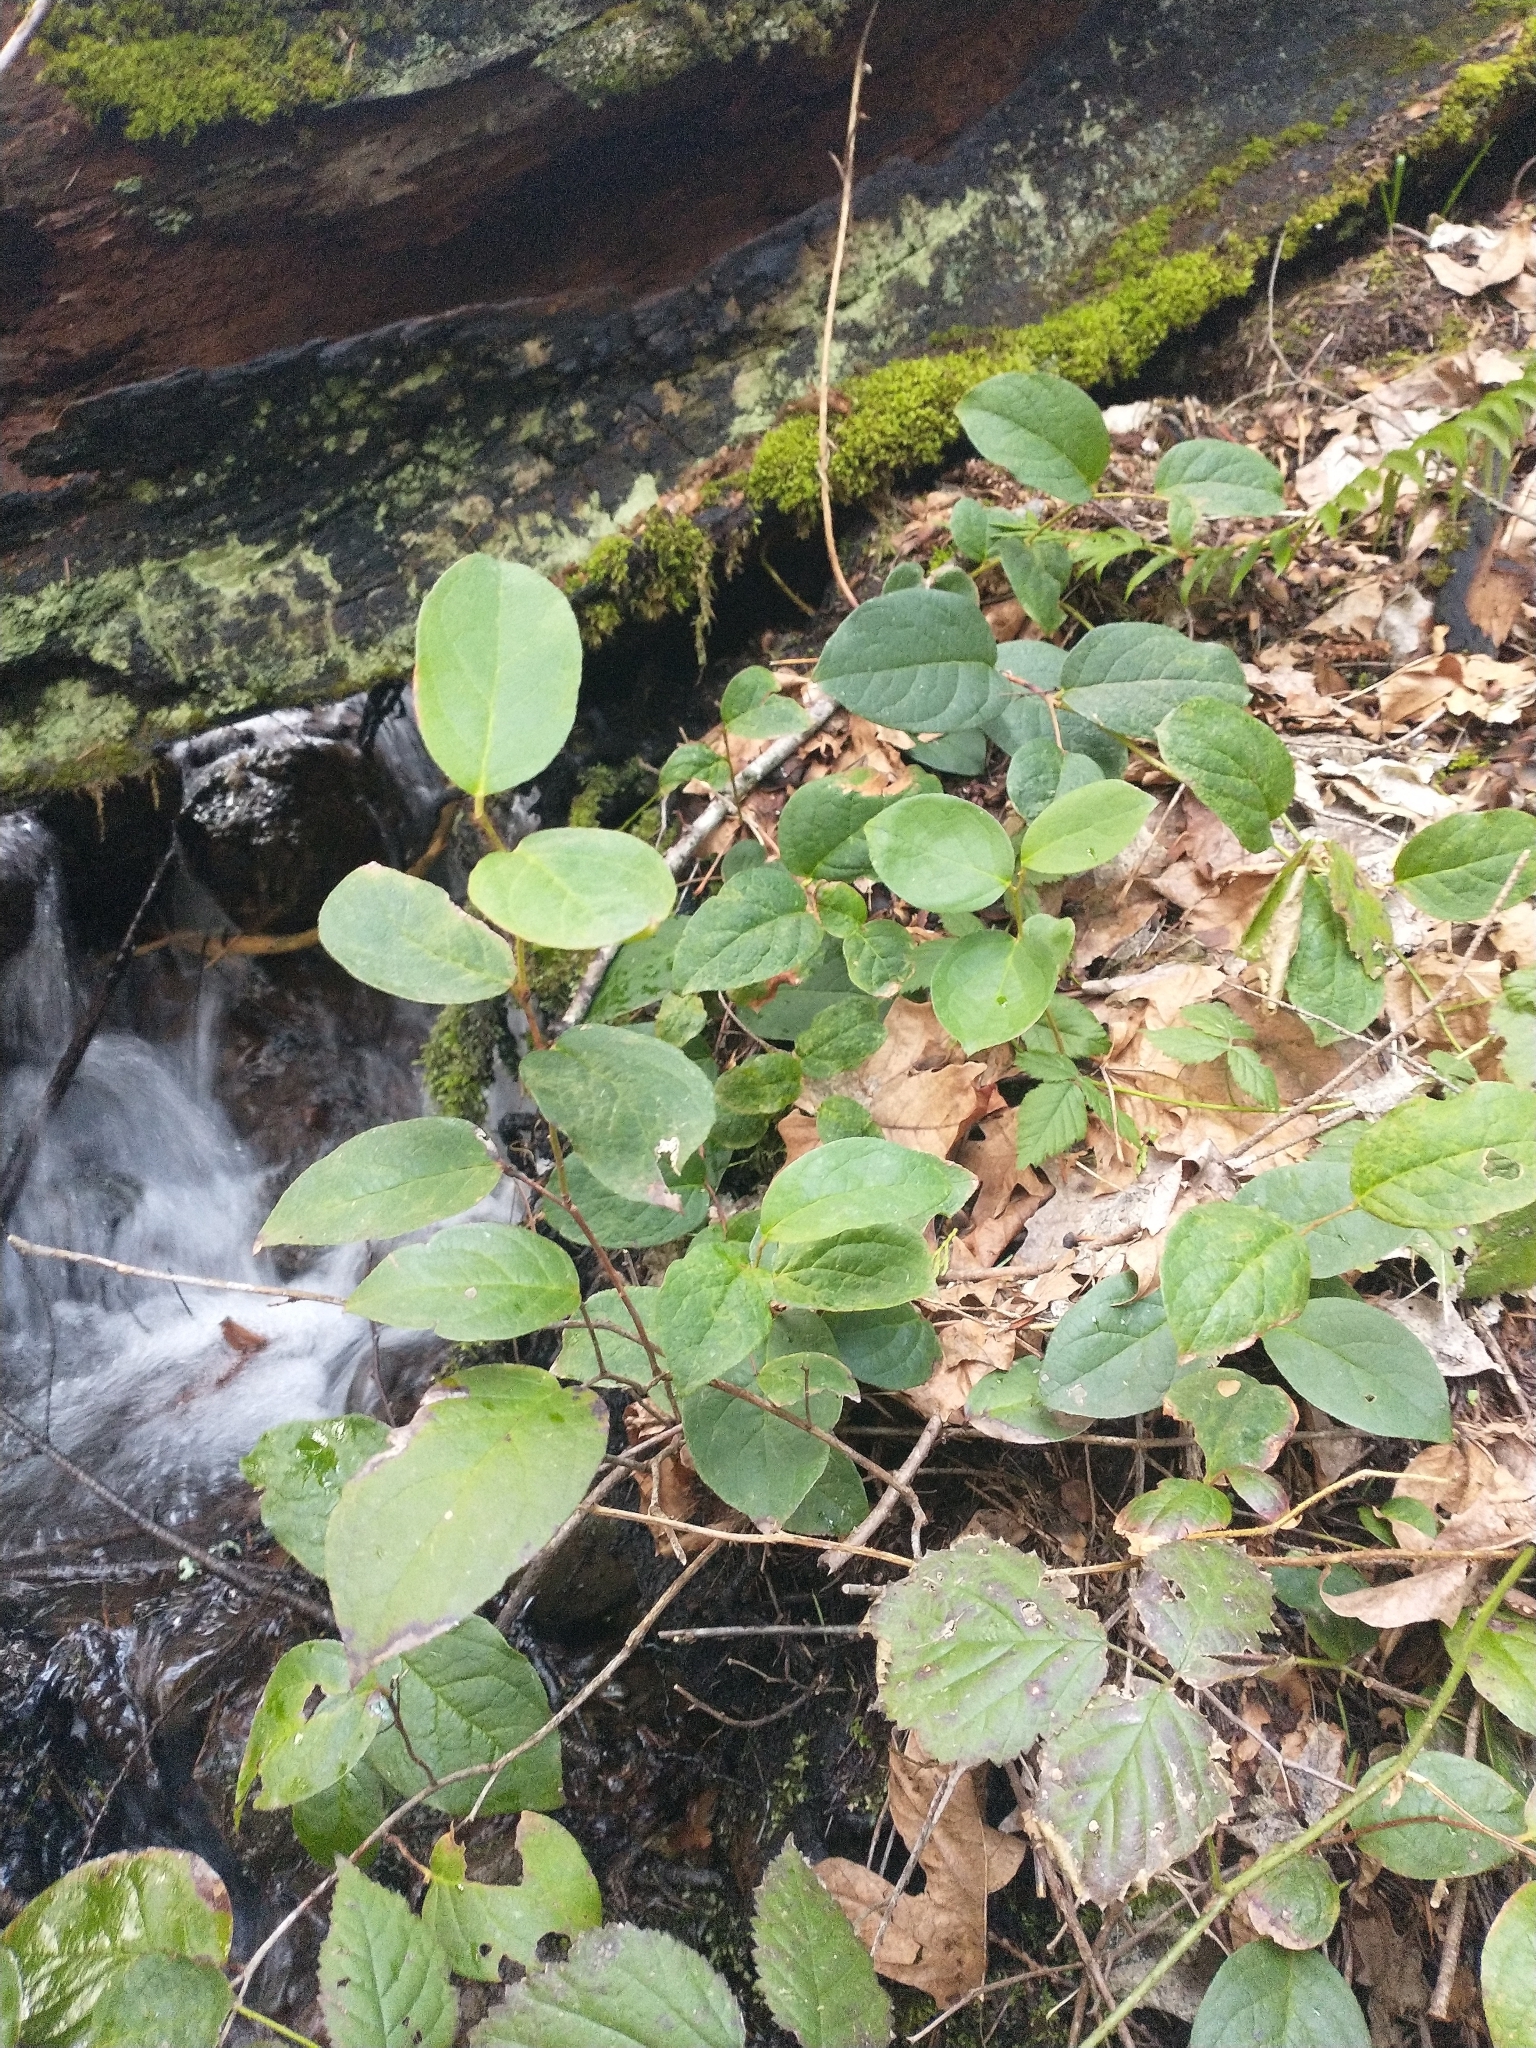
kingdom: Plantae
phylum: Tracheophyta
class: Magnoliopsida
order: Ericales
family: Ericaceae
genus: Gaultheria
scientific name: Gaultheria shallon
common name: Shallon
